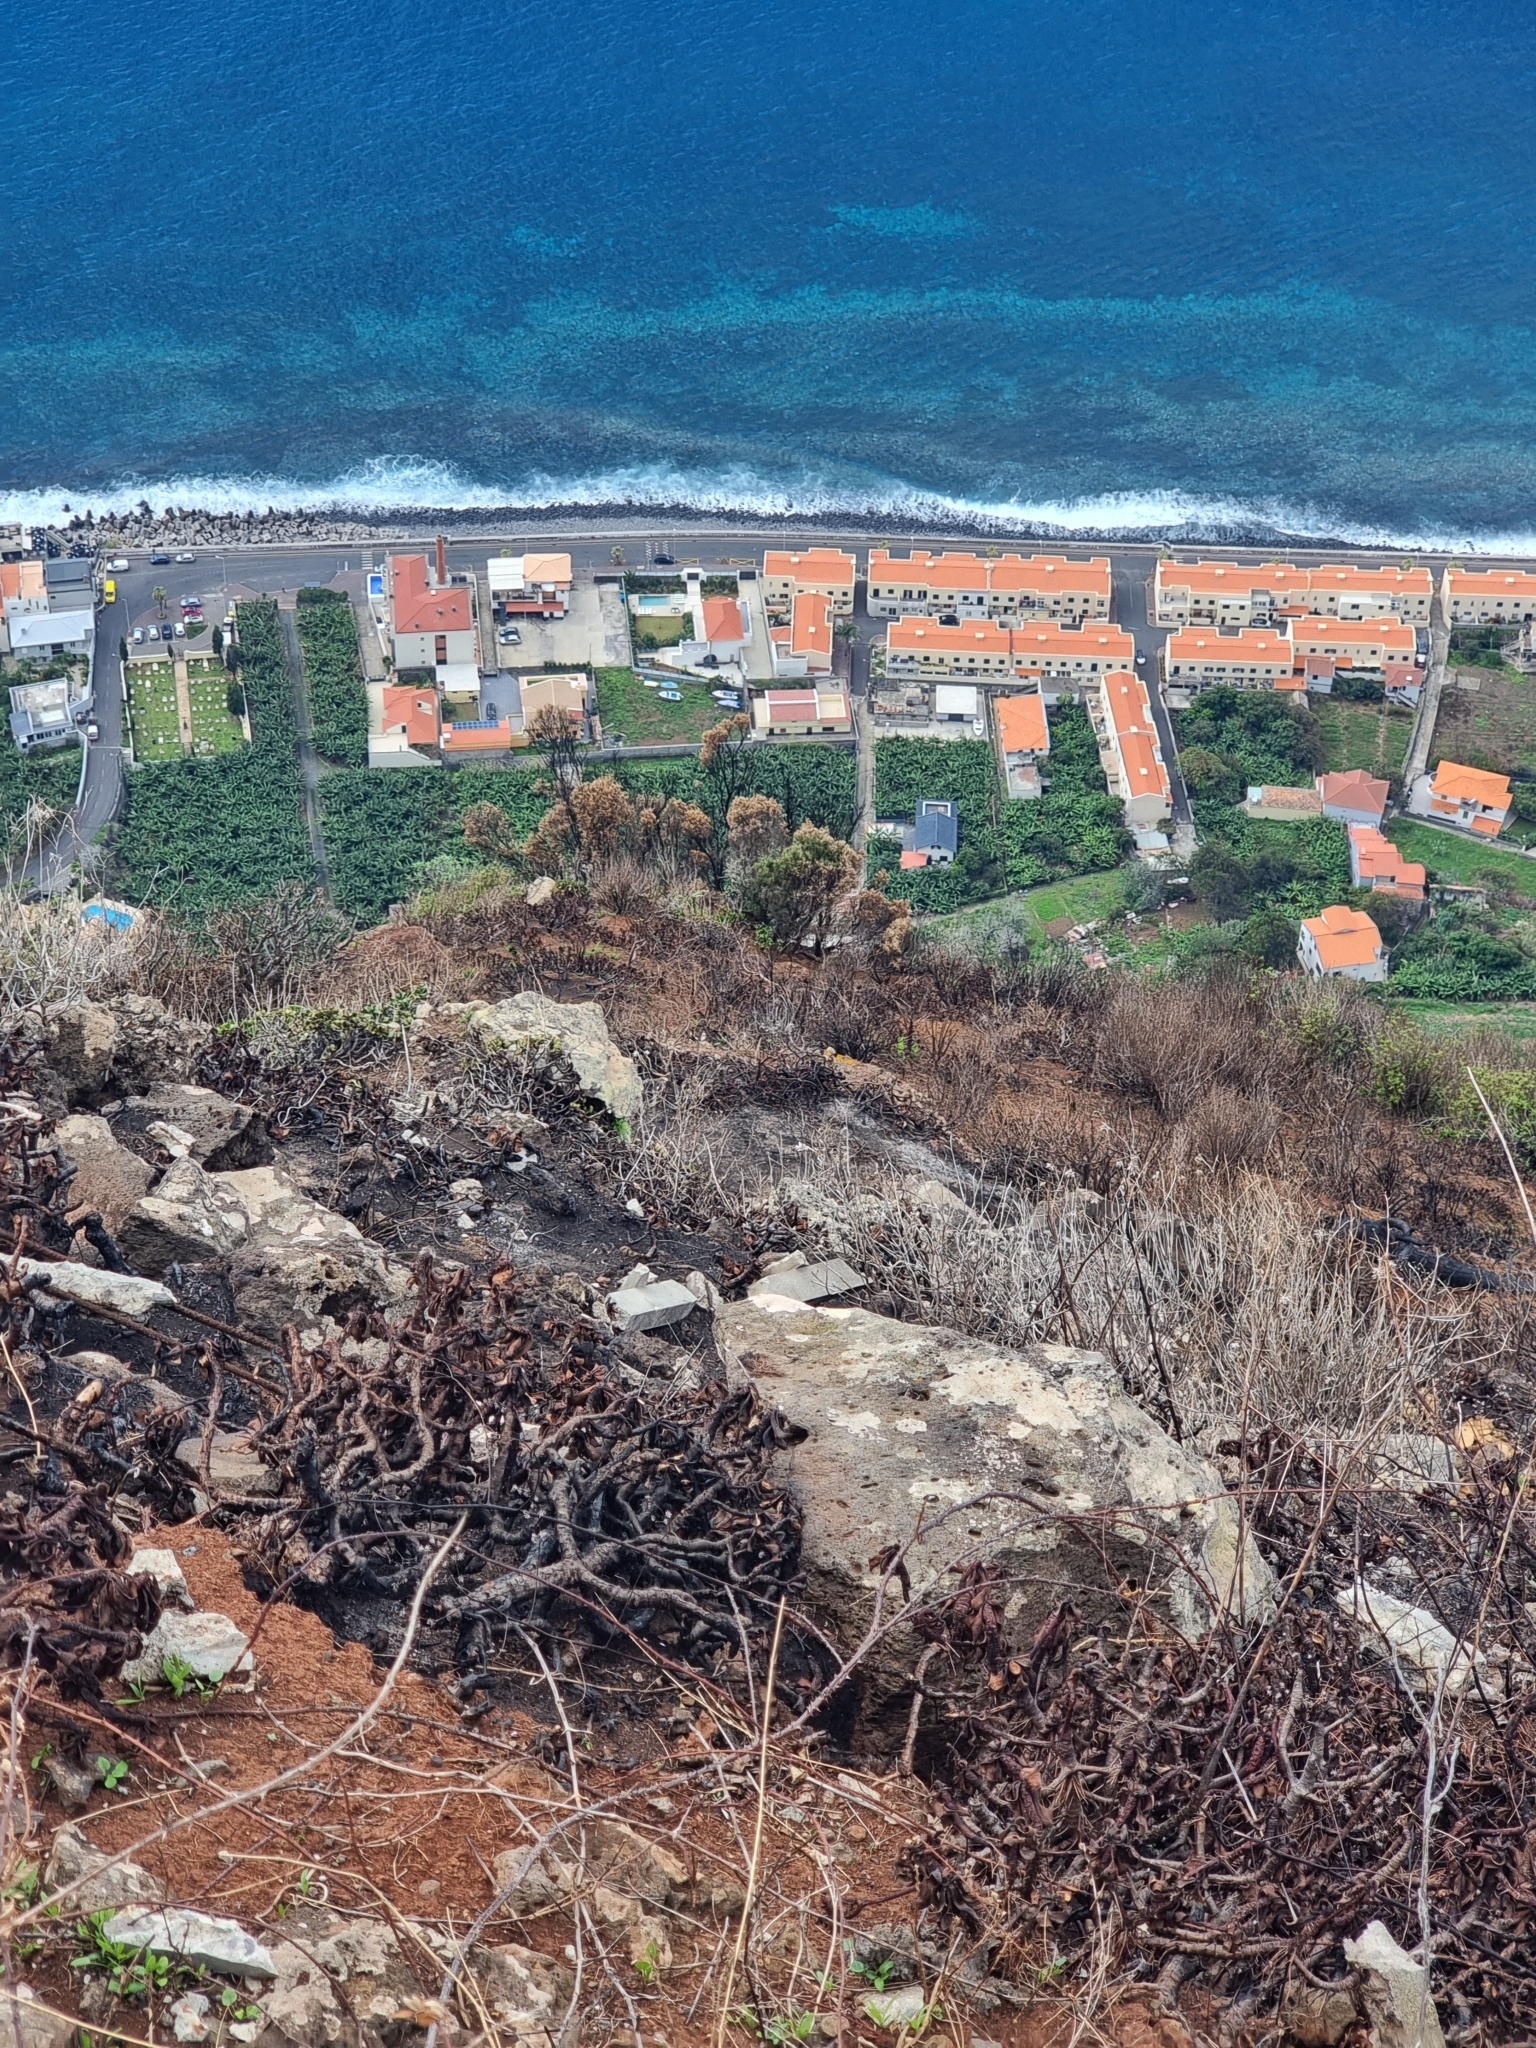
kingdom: Plantae
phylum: Tracheophyta
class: Magnoliopsida
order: Lamiales
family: Oleaceae
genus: Olea
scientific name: Olea europaea
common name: Olive
